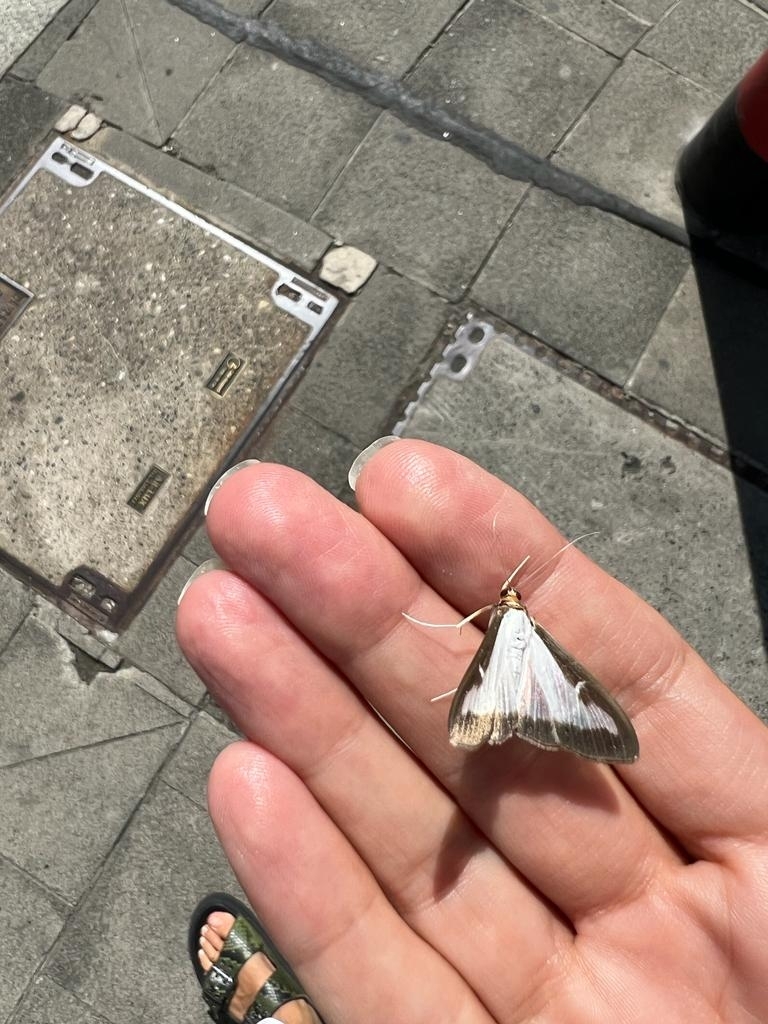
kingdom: Animalia
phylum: Arthropoda
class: Insecta
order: Lepidoptera
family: Crambidae
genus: Cydalima
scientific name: Cydalima perspectalis
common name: Box tree moth
